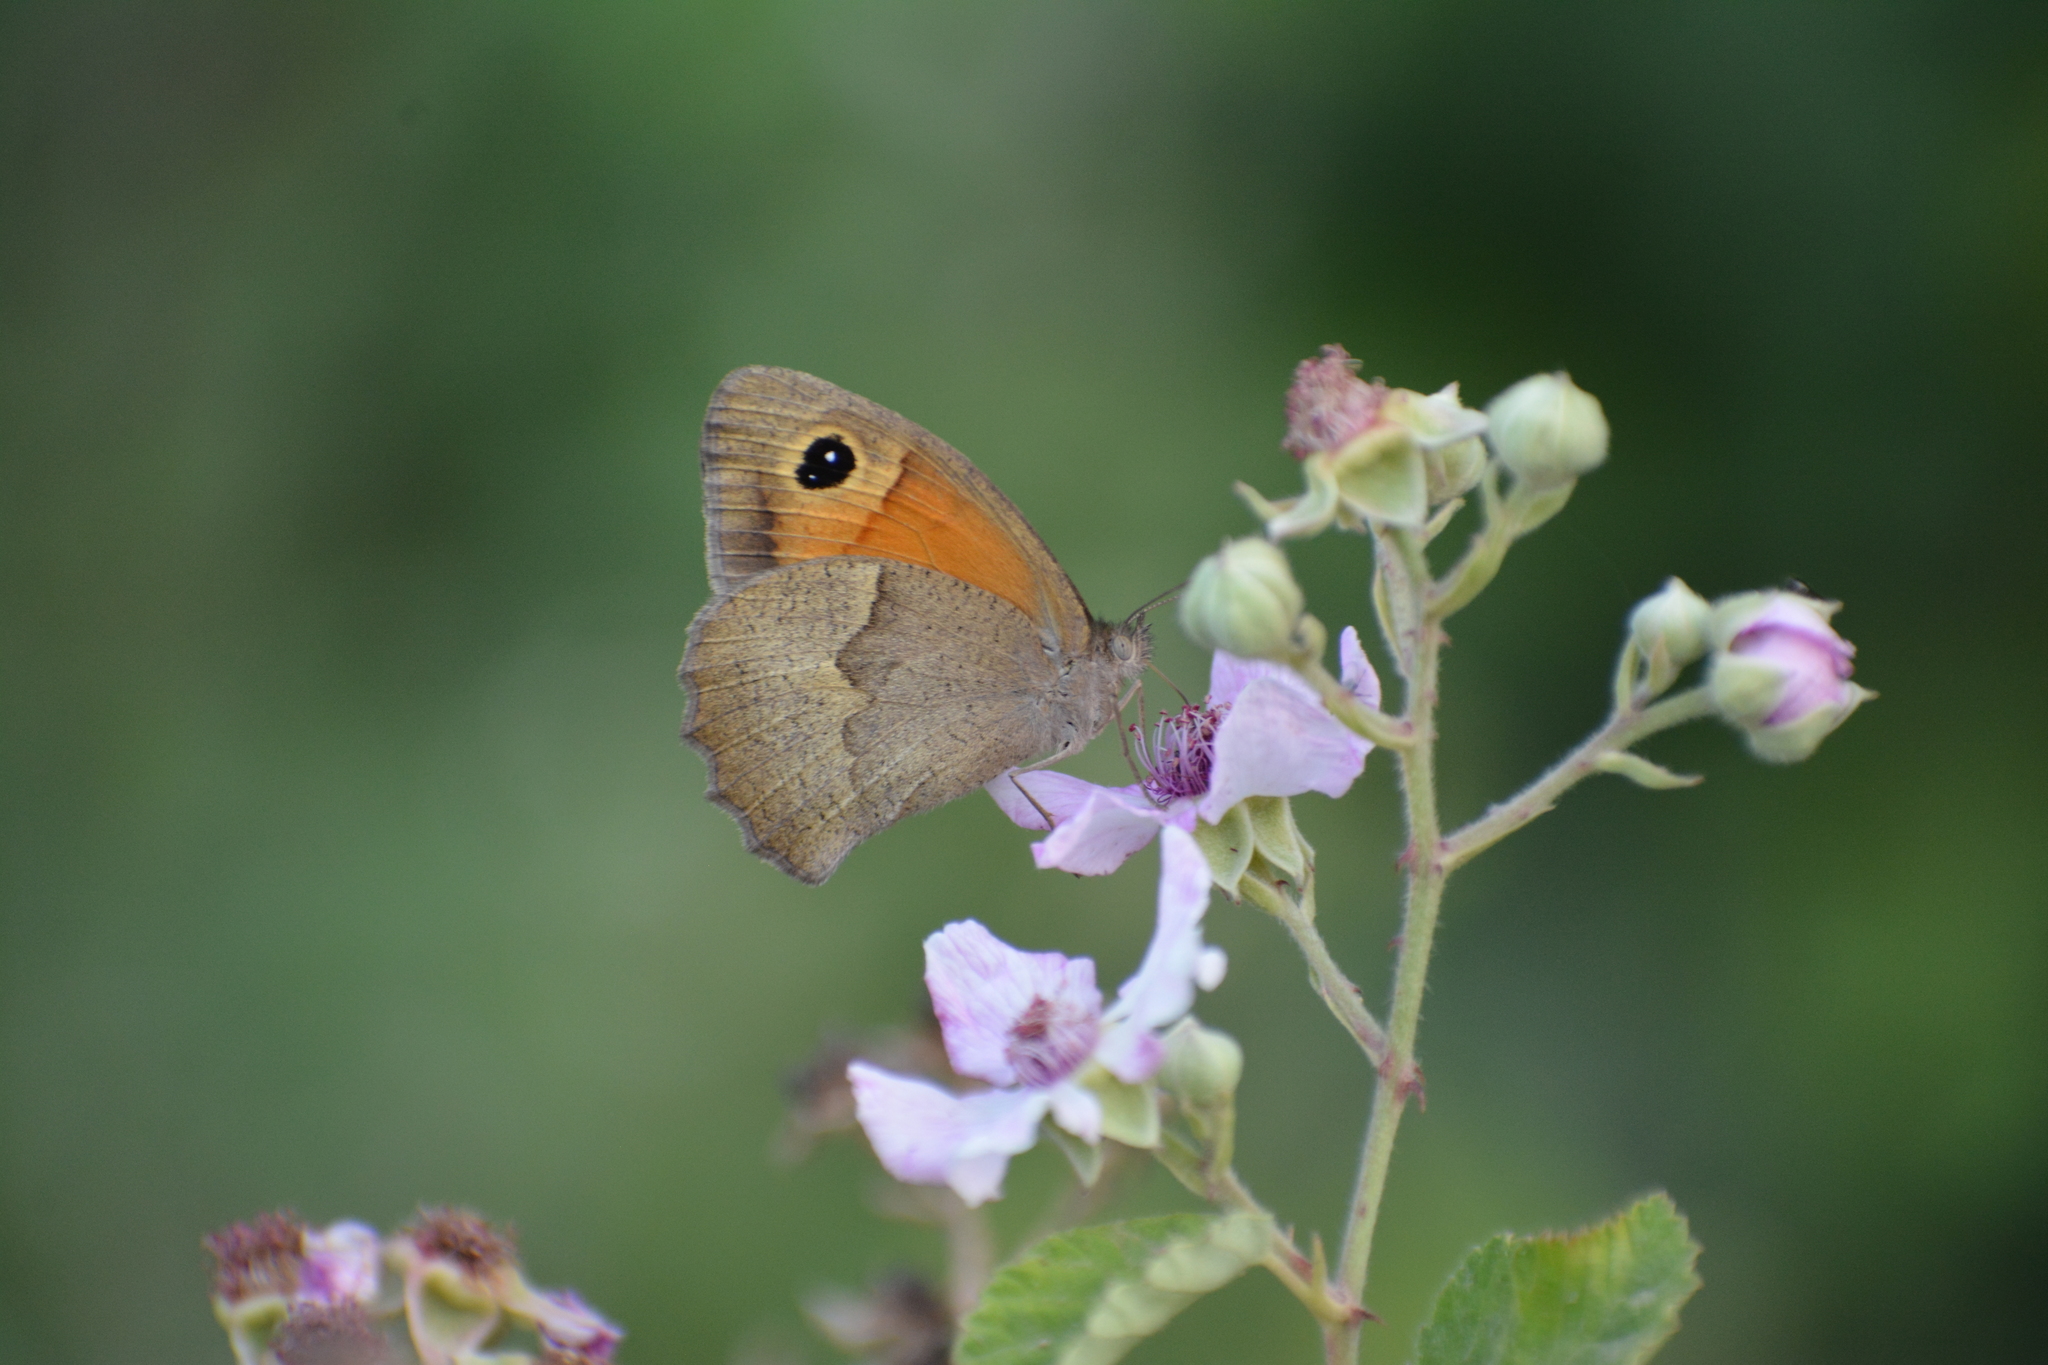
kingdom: Animalia
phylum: Arthropoda
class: Insecta
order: Lepidoptera
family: Nymphalidae
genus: Maniola
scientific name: Maniola telmessia
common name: Persian meadow brown
